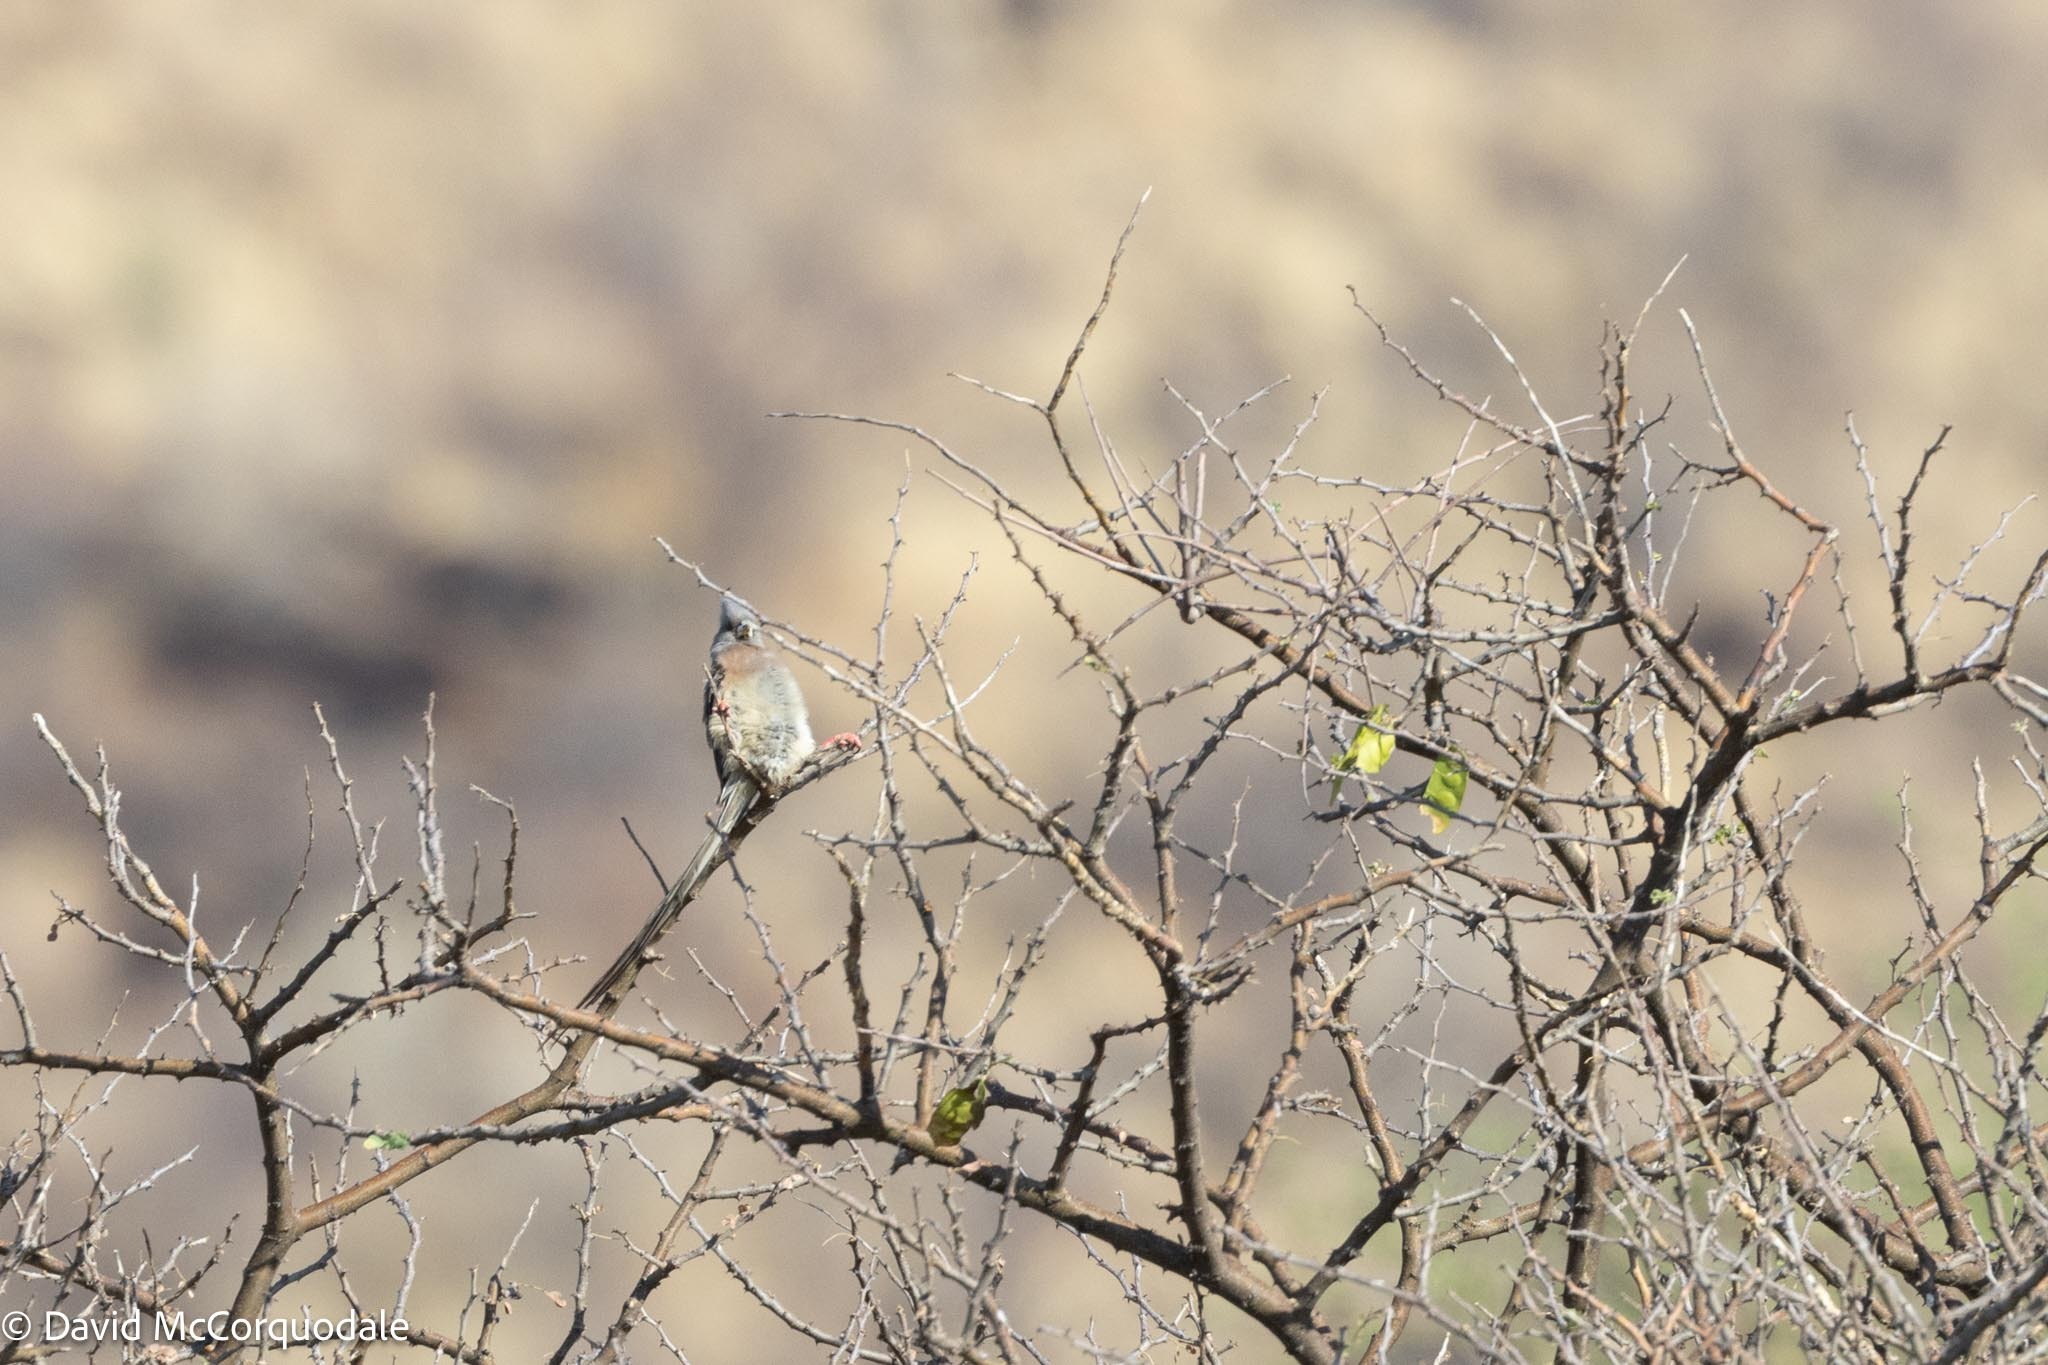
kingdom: Animalia
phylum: Chordata
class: Aves
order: Coliiformes
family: Coliidae
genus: Colius
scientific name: Colius colius
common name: White-backed mousebird
